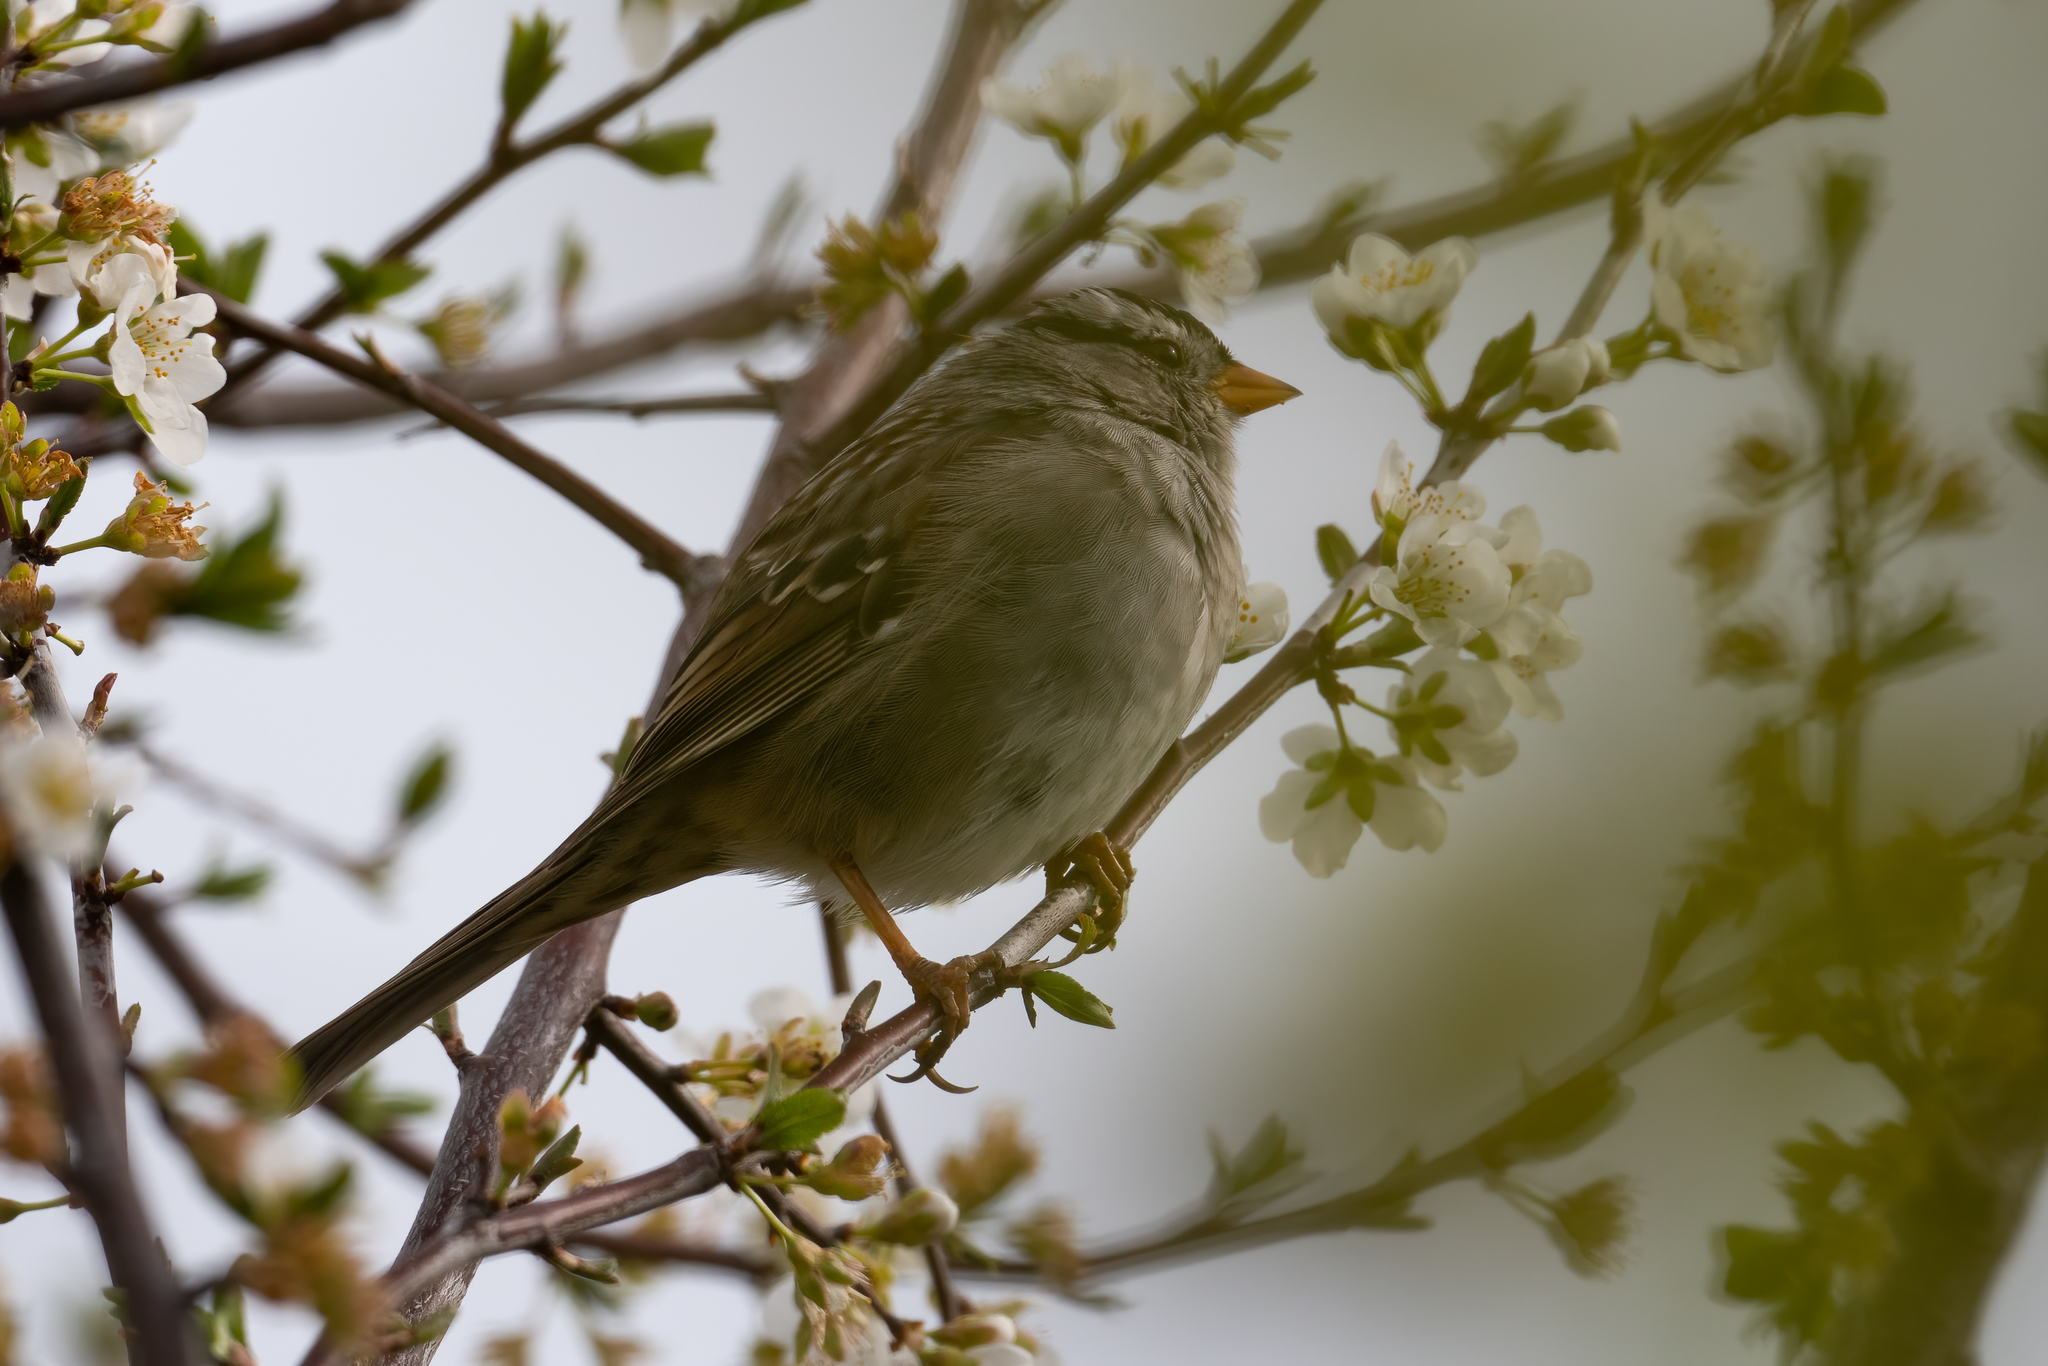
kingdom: Animalia
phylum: Chordata
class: Aves
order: Passeriformes
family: Passerellidae
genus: Zonotrichia
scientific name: Zonotrichia leucophrys
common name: White-crowned sparrow
